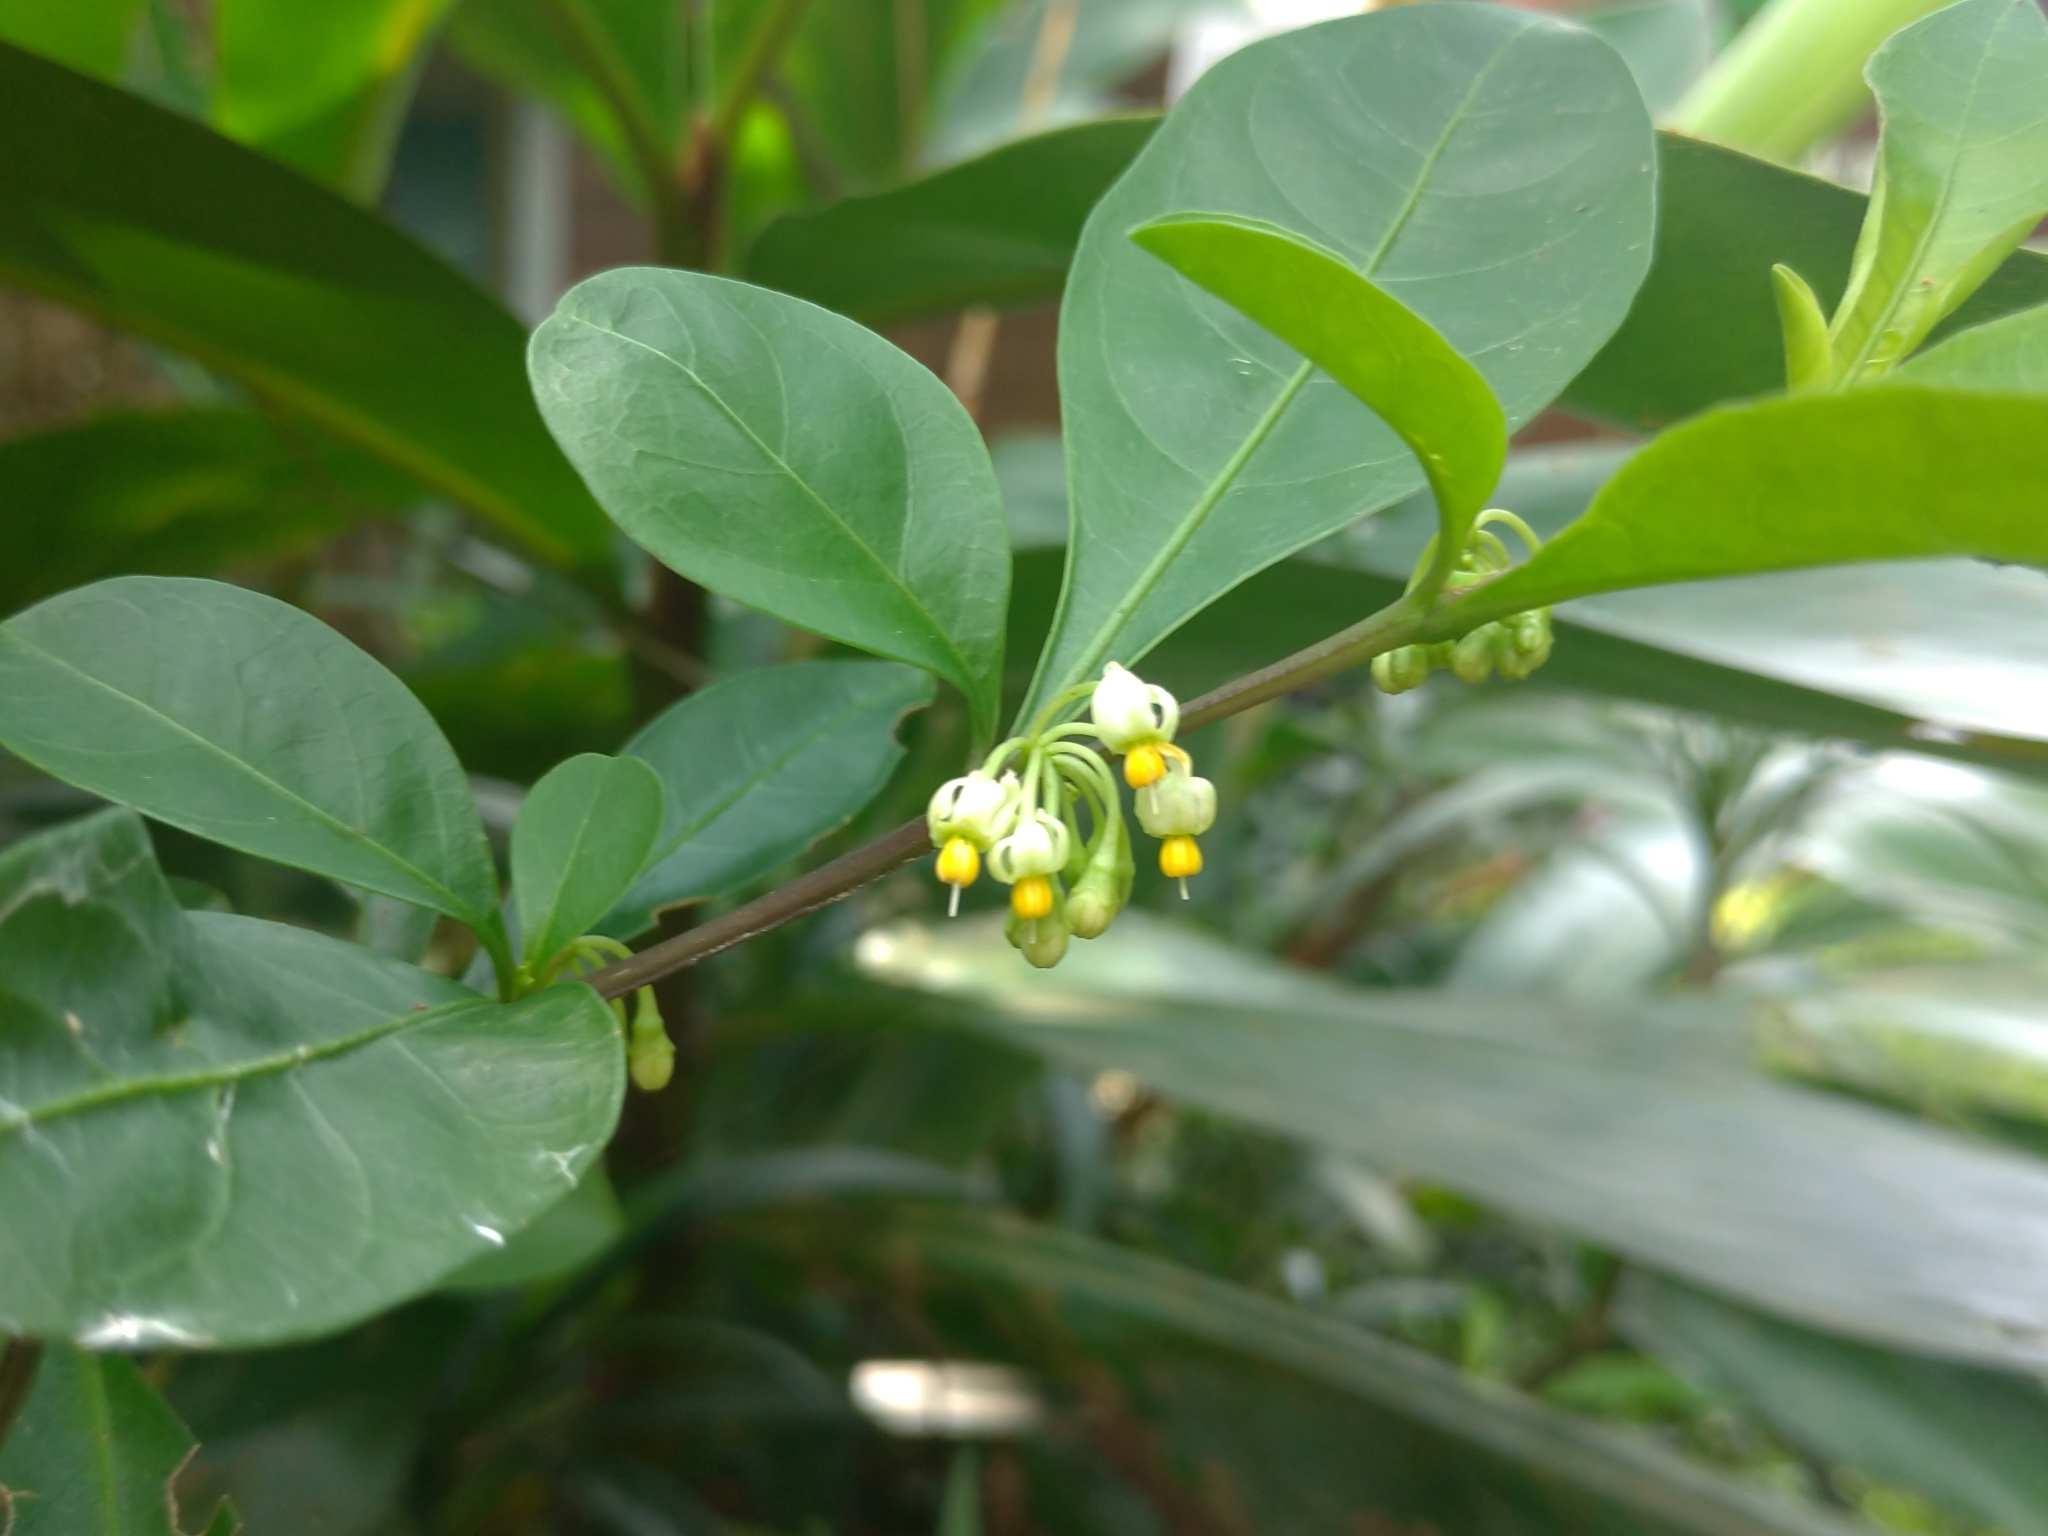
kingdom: Plantae
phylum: Tracheophyta
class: Magnoliopsida
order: Solanales
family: Solanaceae
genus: Solanum
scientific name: Solanum diphyllum
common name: Twoleaf nightshade
